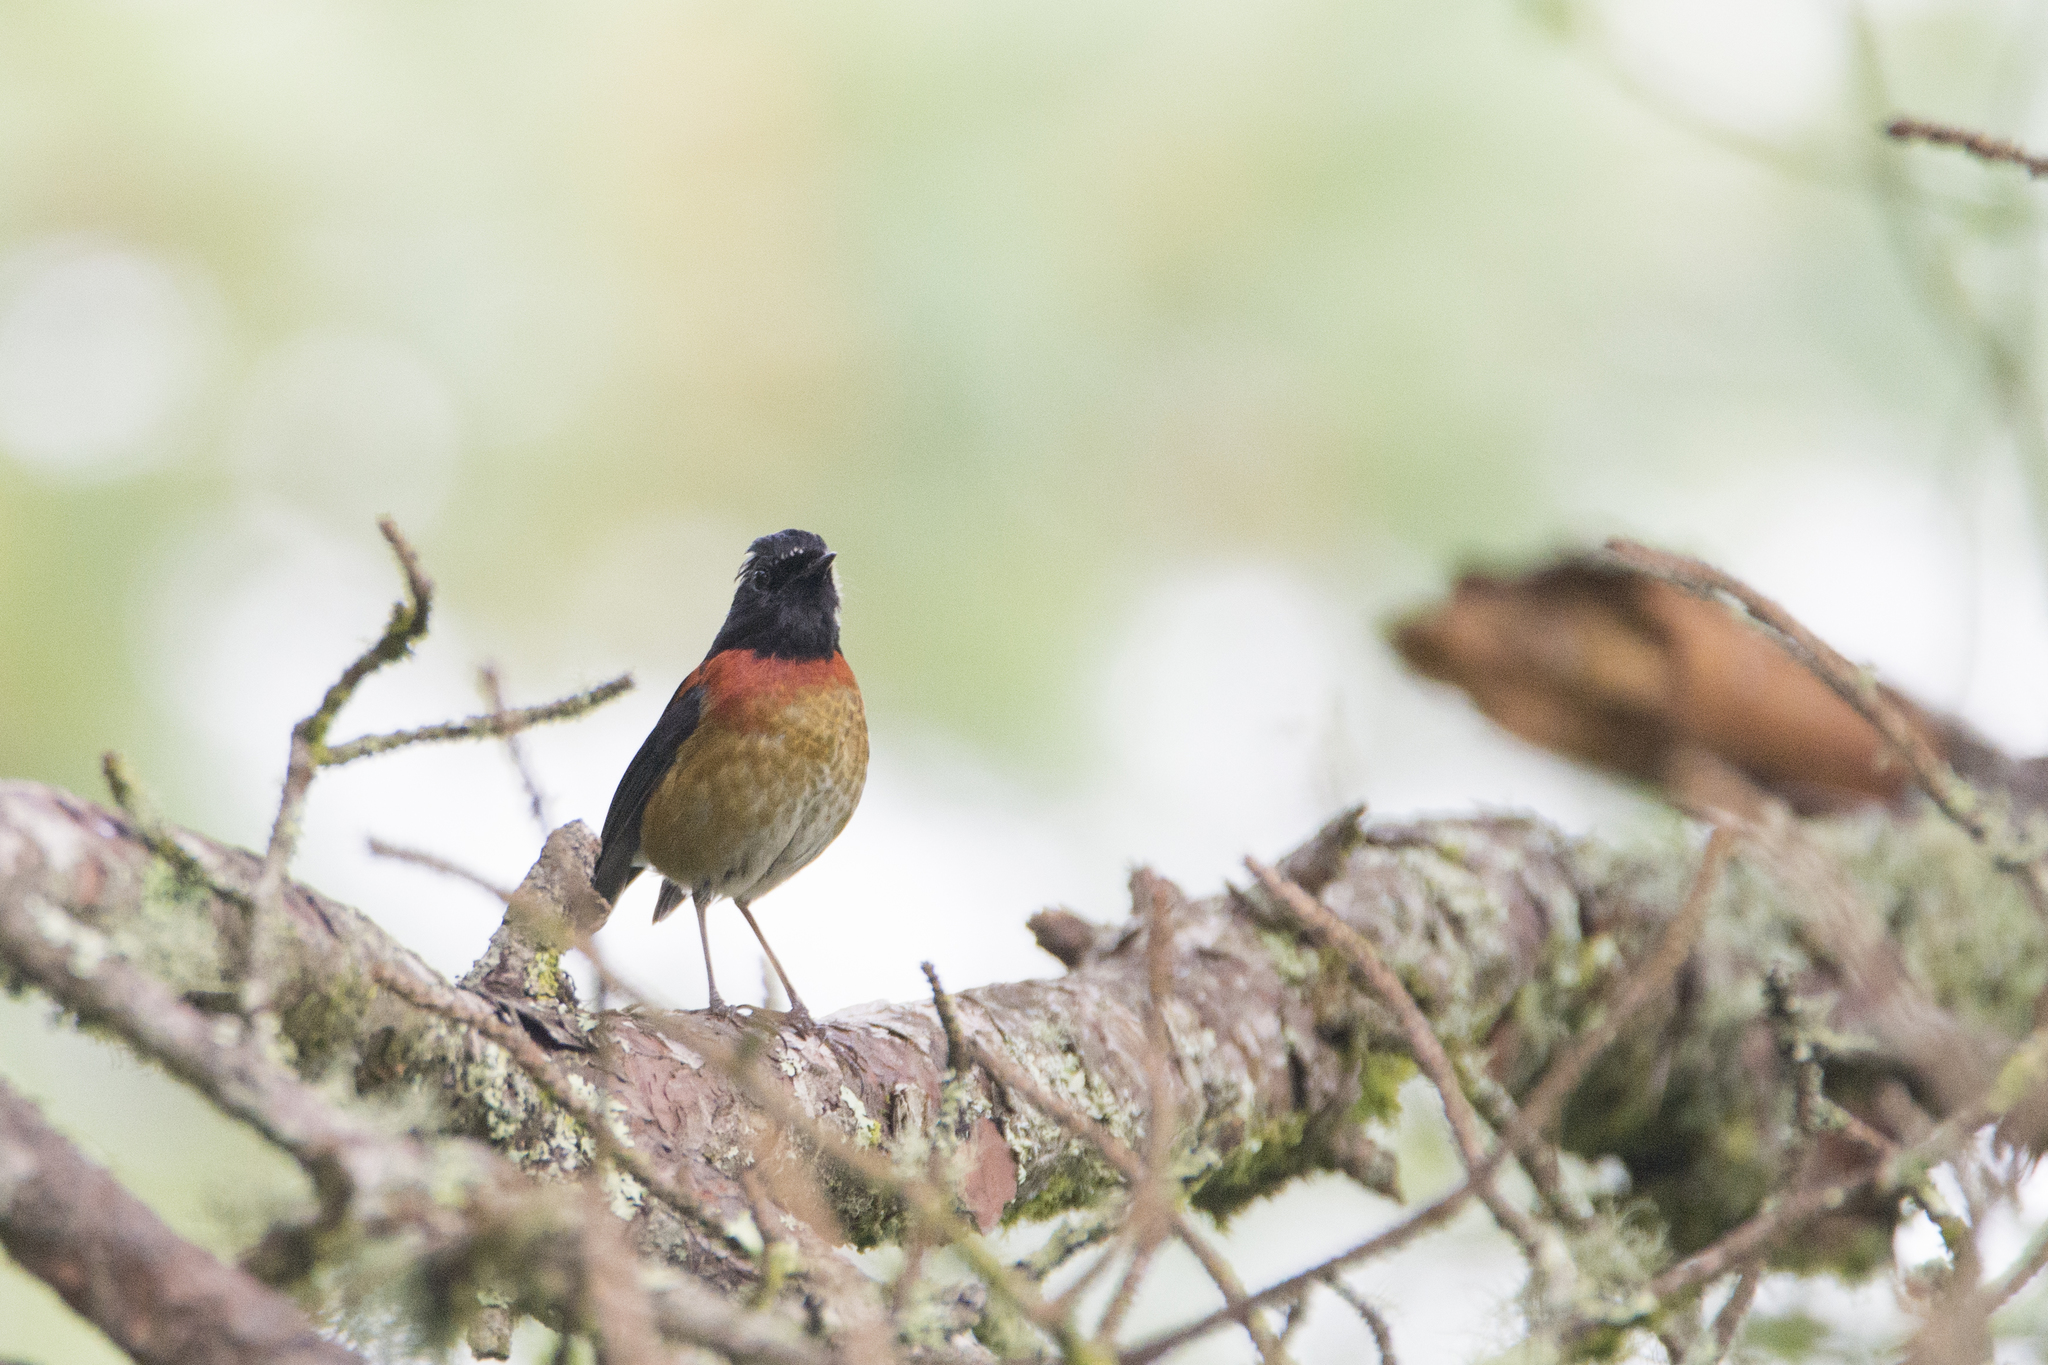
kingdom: Animalia
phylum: Chordata
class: Aves
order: Passeriformes
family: Muscicapidae
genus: Tarsiger
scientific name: Tarsiger johnstoniae
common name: Collared bush robin
